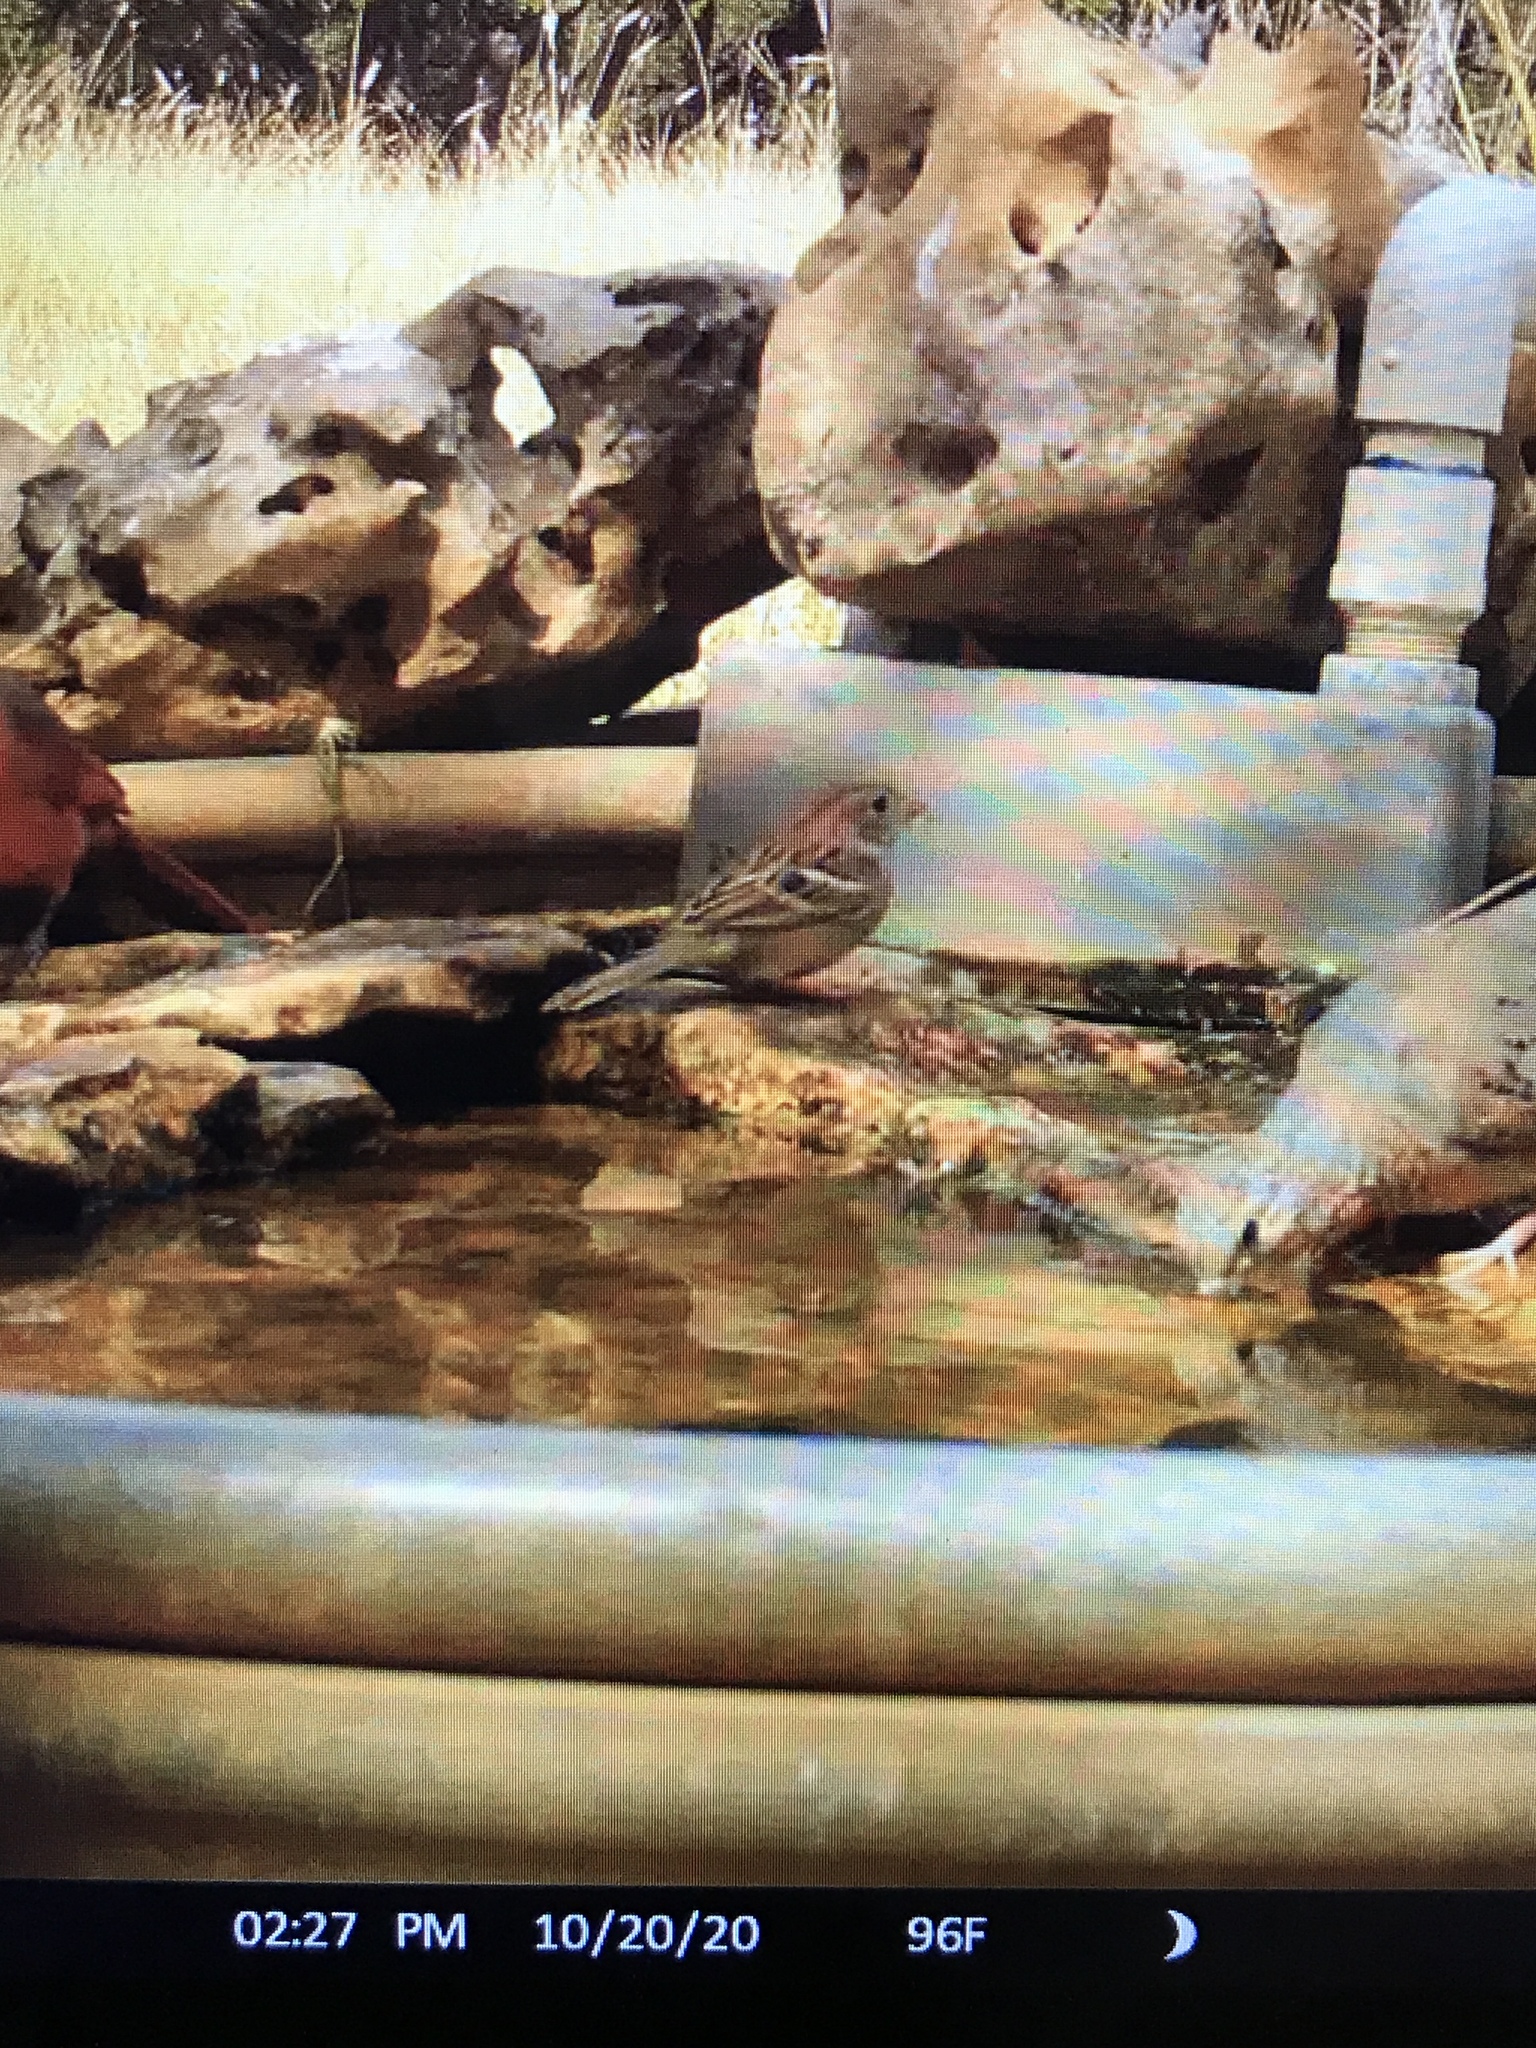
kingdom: Animalia
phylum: Chordata
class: Aves
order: Passeriformes
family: Passerellidae
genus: Spizella
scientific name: Spizella pusilla
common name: Field sparrow
